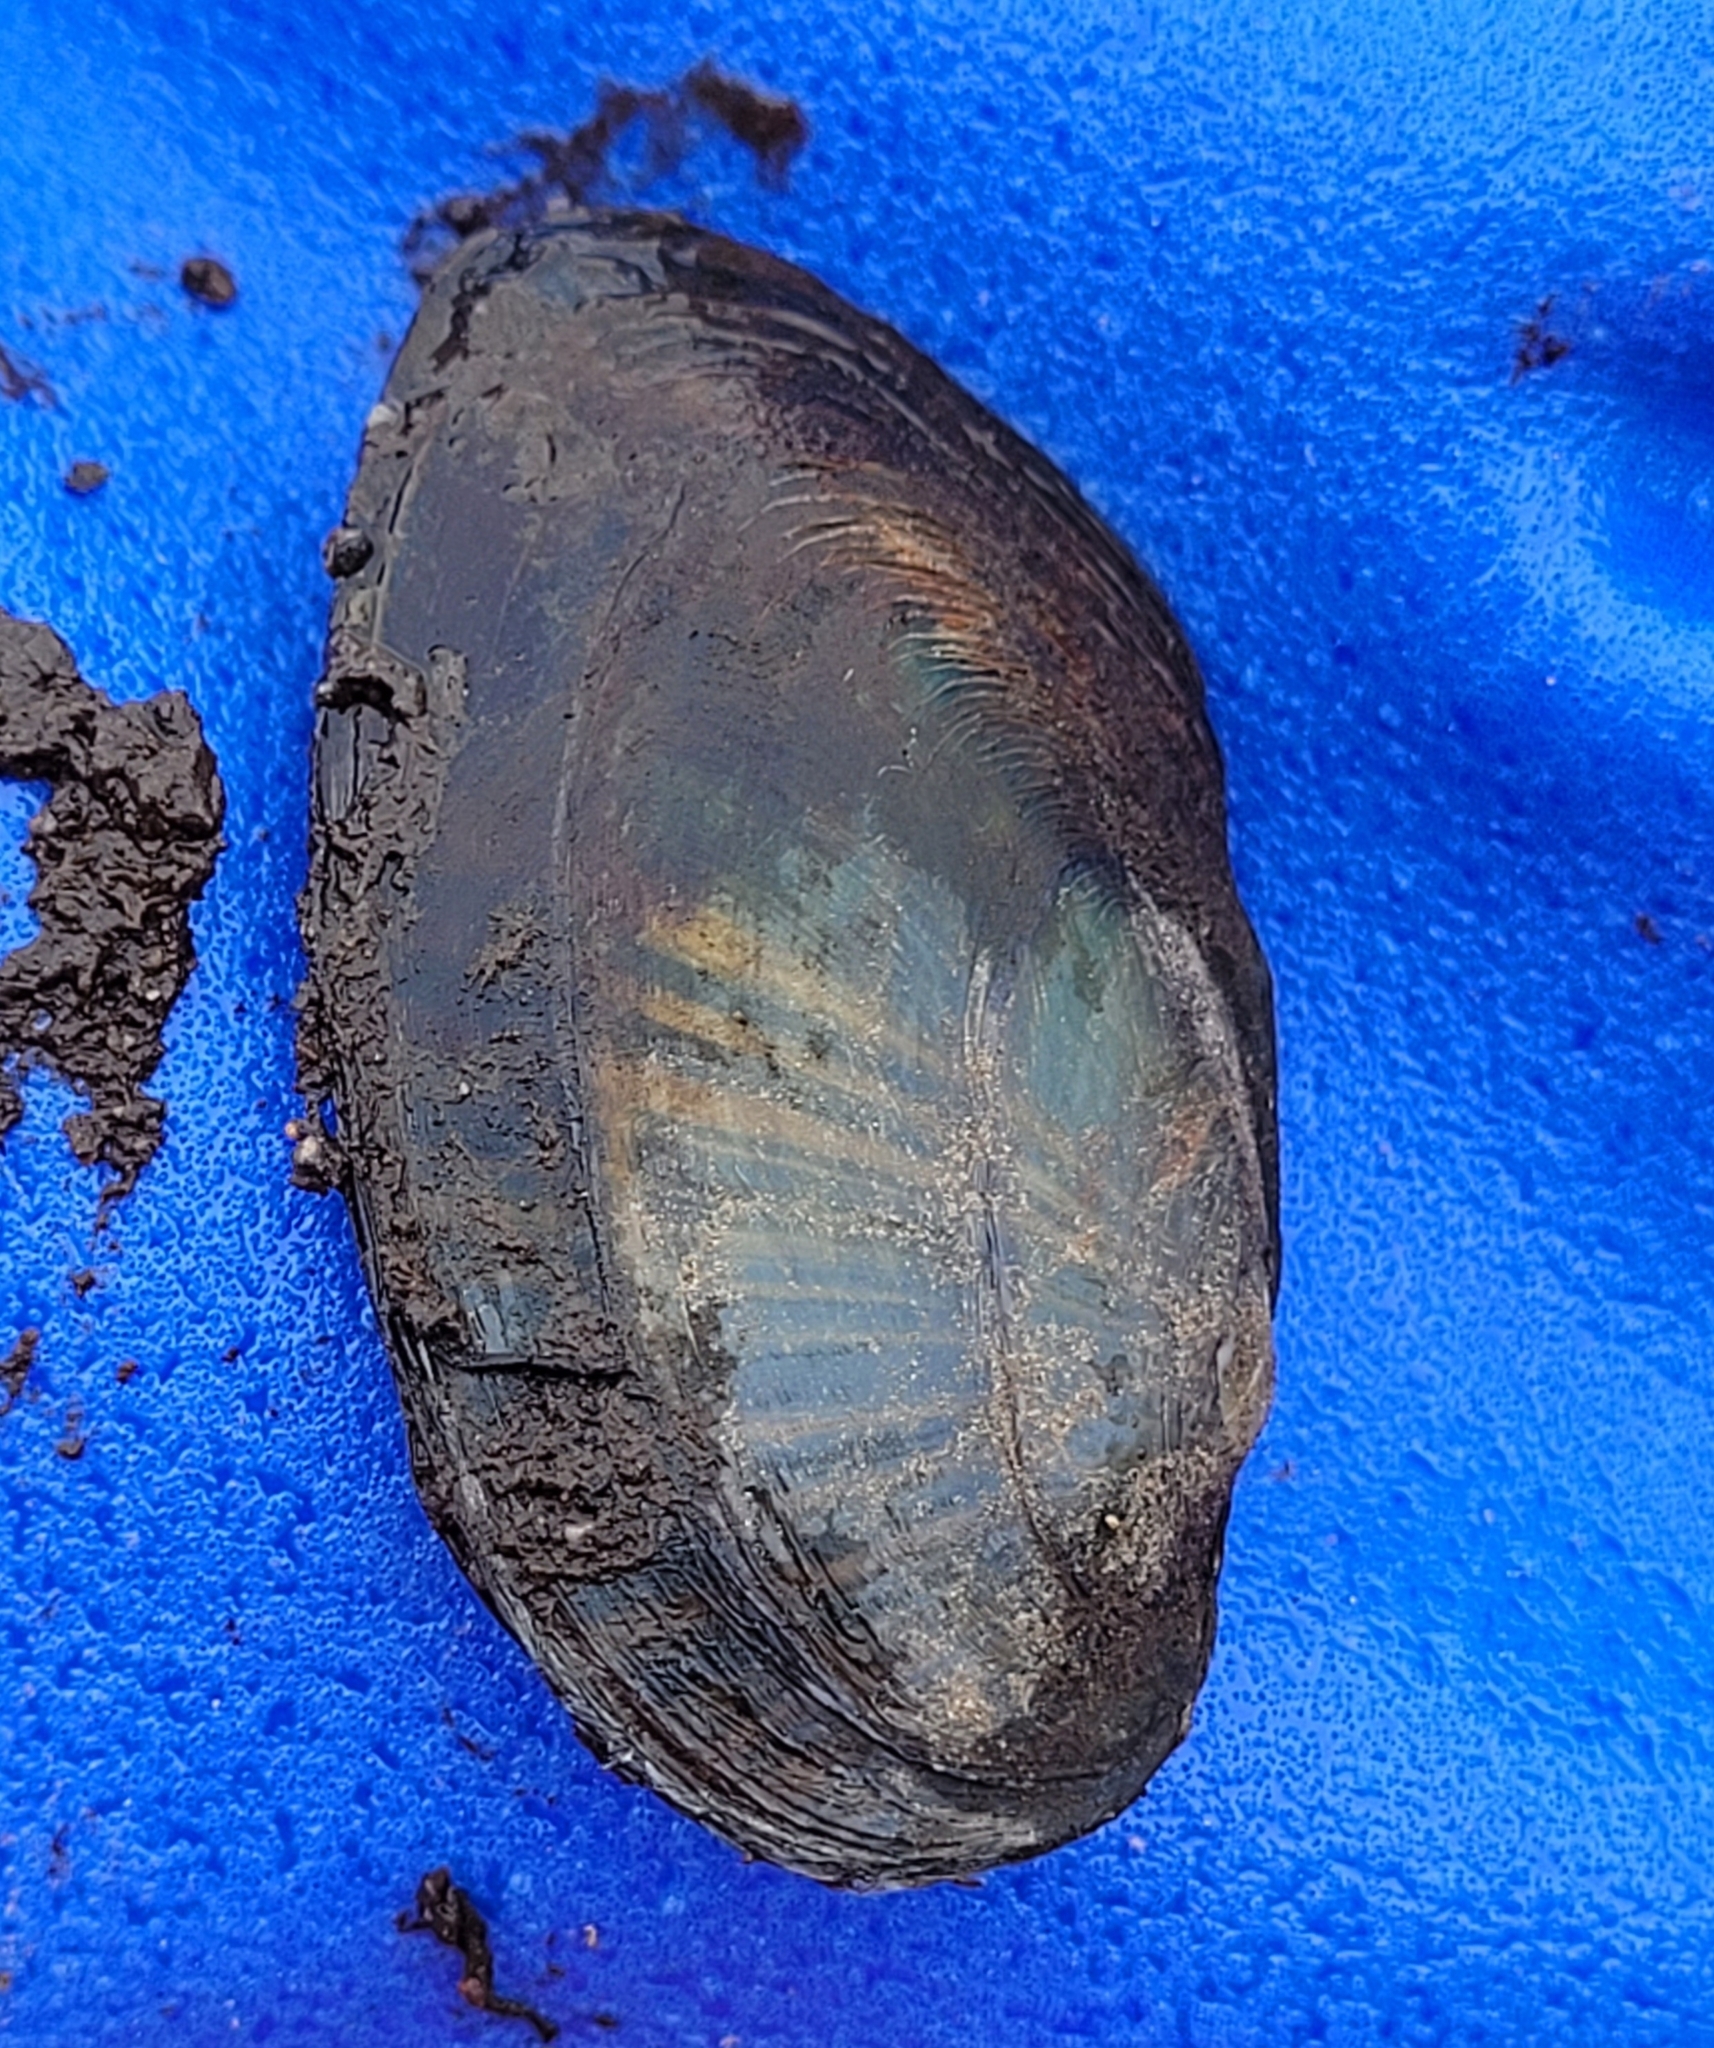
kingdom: Animalia
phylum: Mollusca
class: Bivalvia
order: Unionida
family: Unionidae
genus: Elliptio
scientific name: Elliptio complanata
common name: Eastern elliptio
